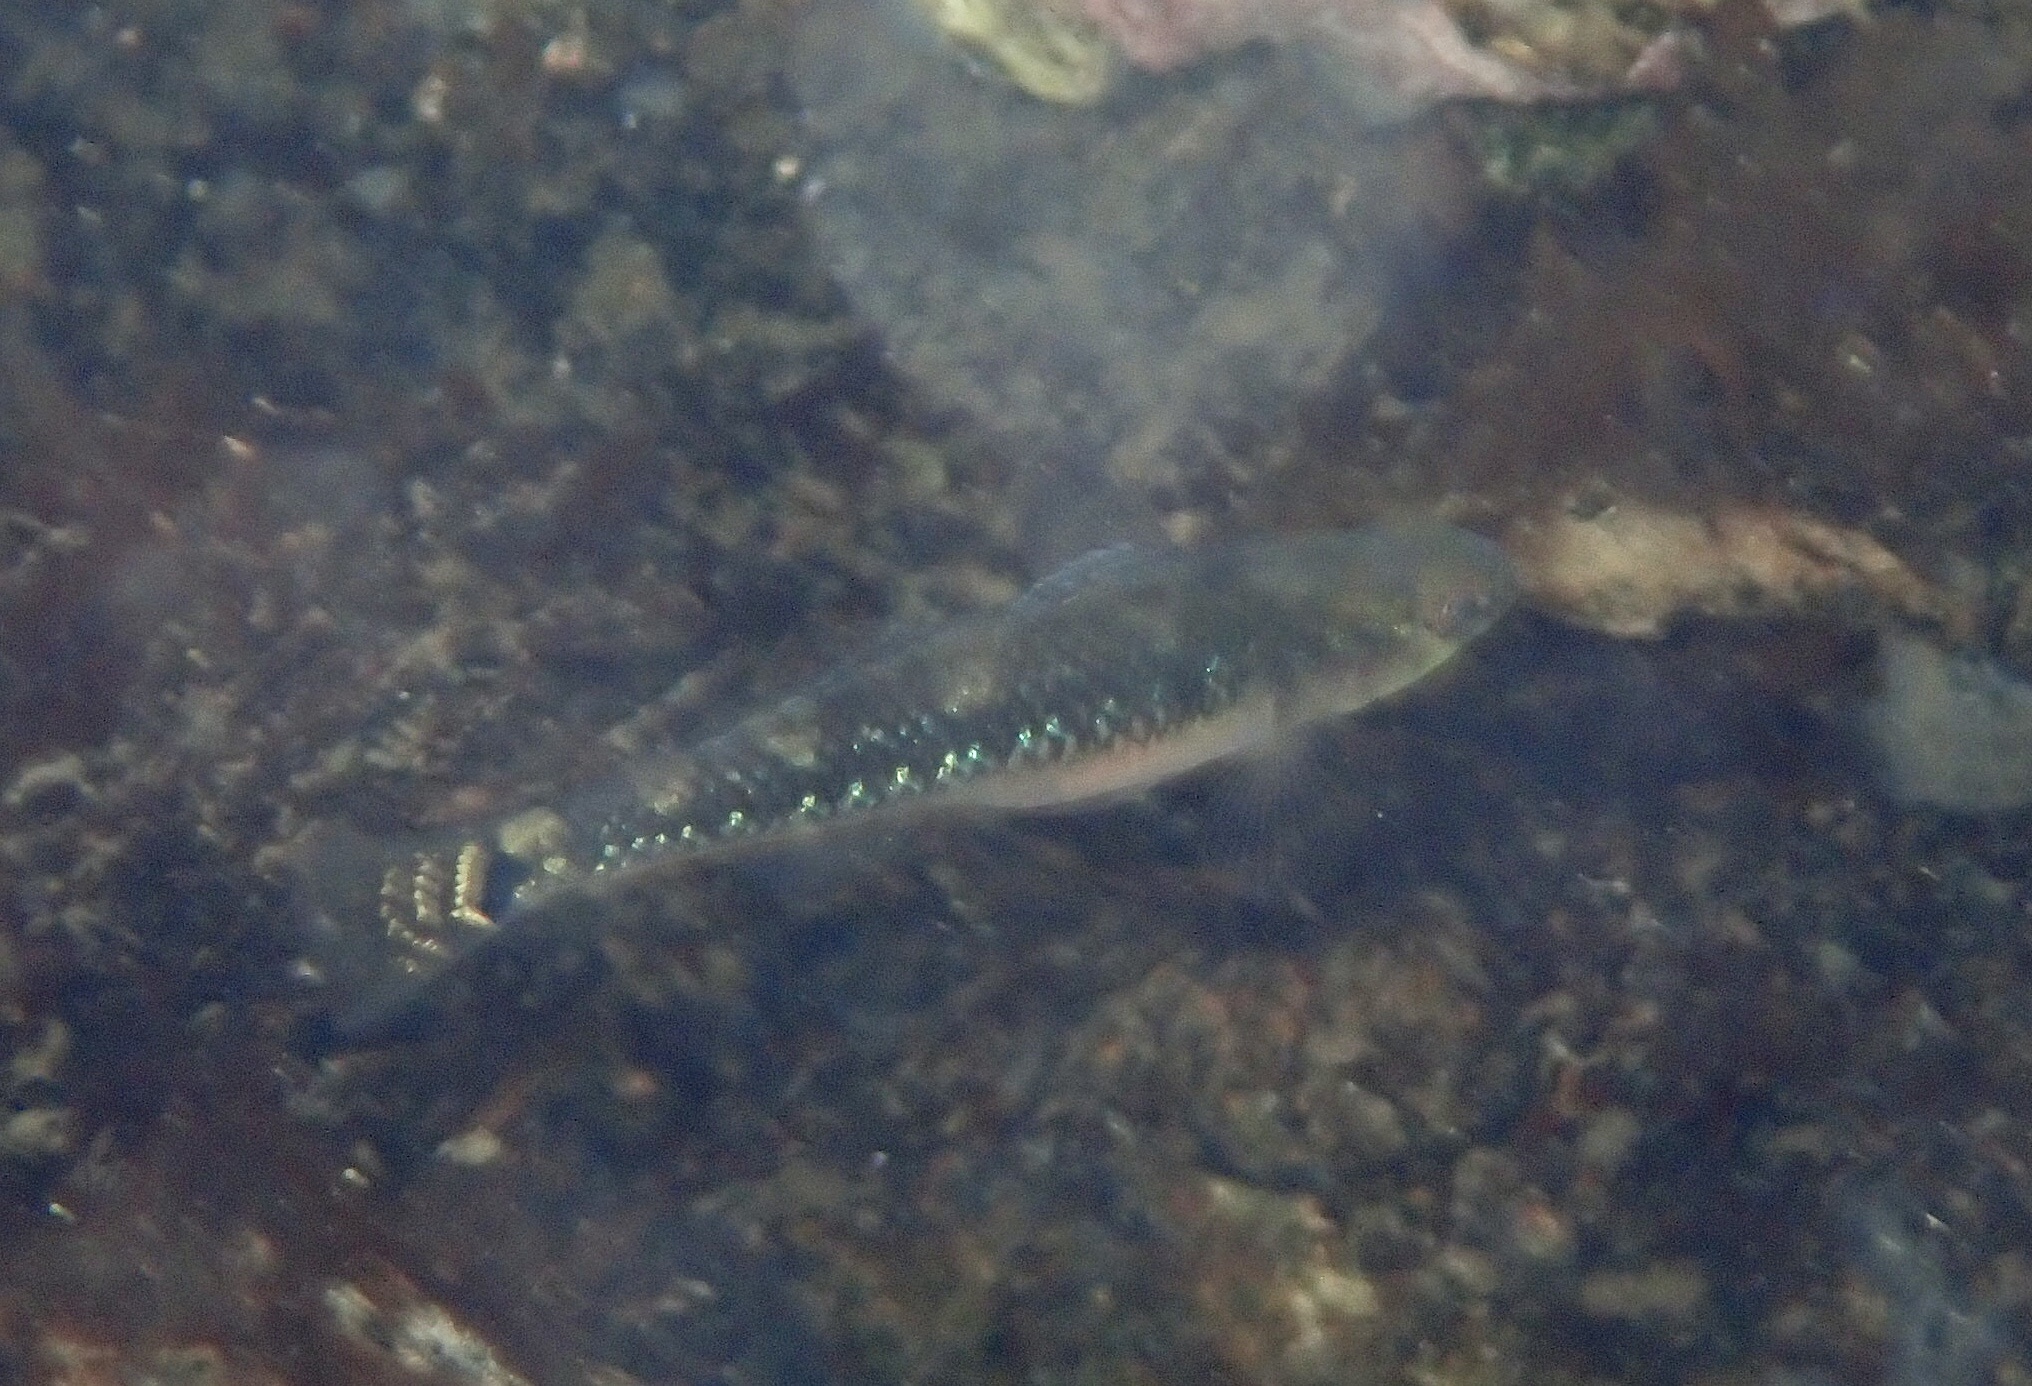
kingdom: Animalia
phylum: Chordata
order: Perciformes
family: Gobiidae
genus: Gobiusculus
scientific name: Gobiusculus flavescens
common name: Two-spotted goby
